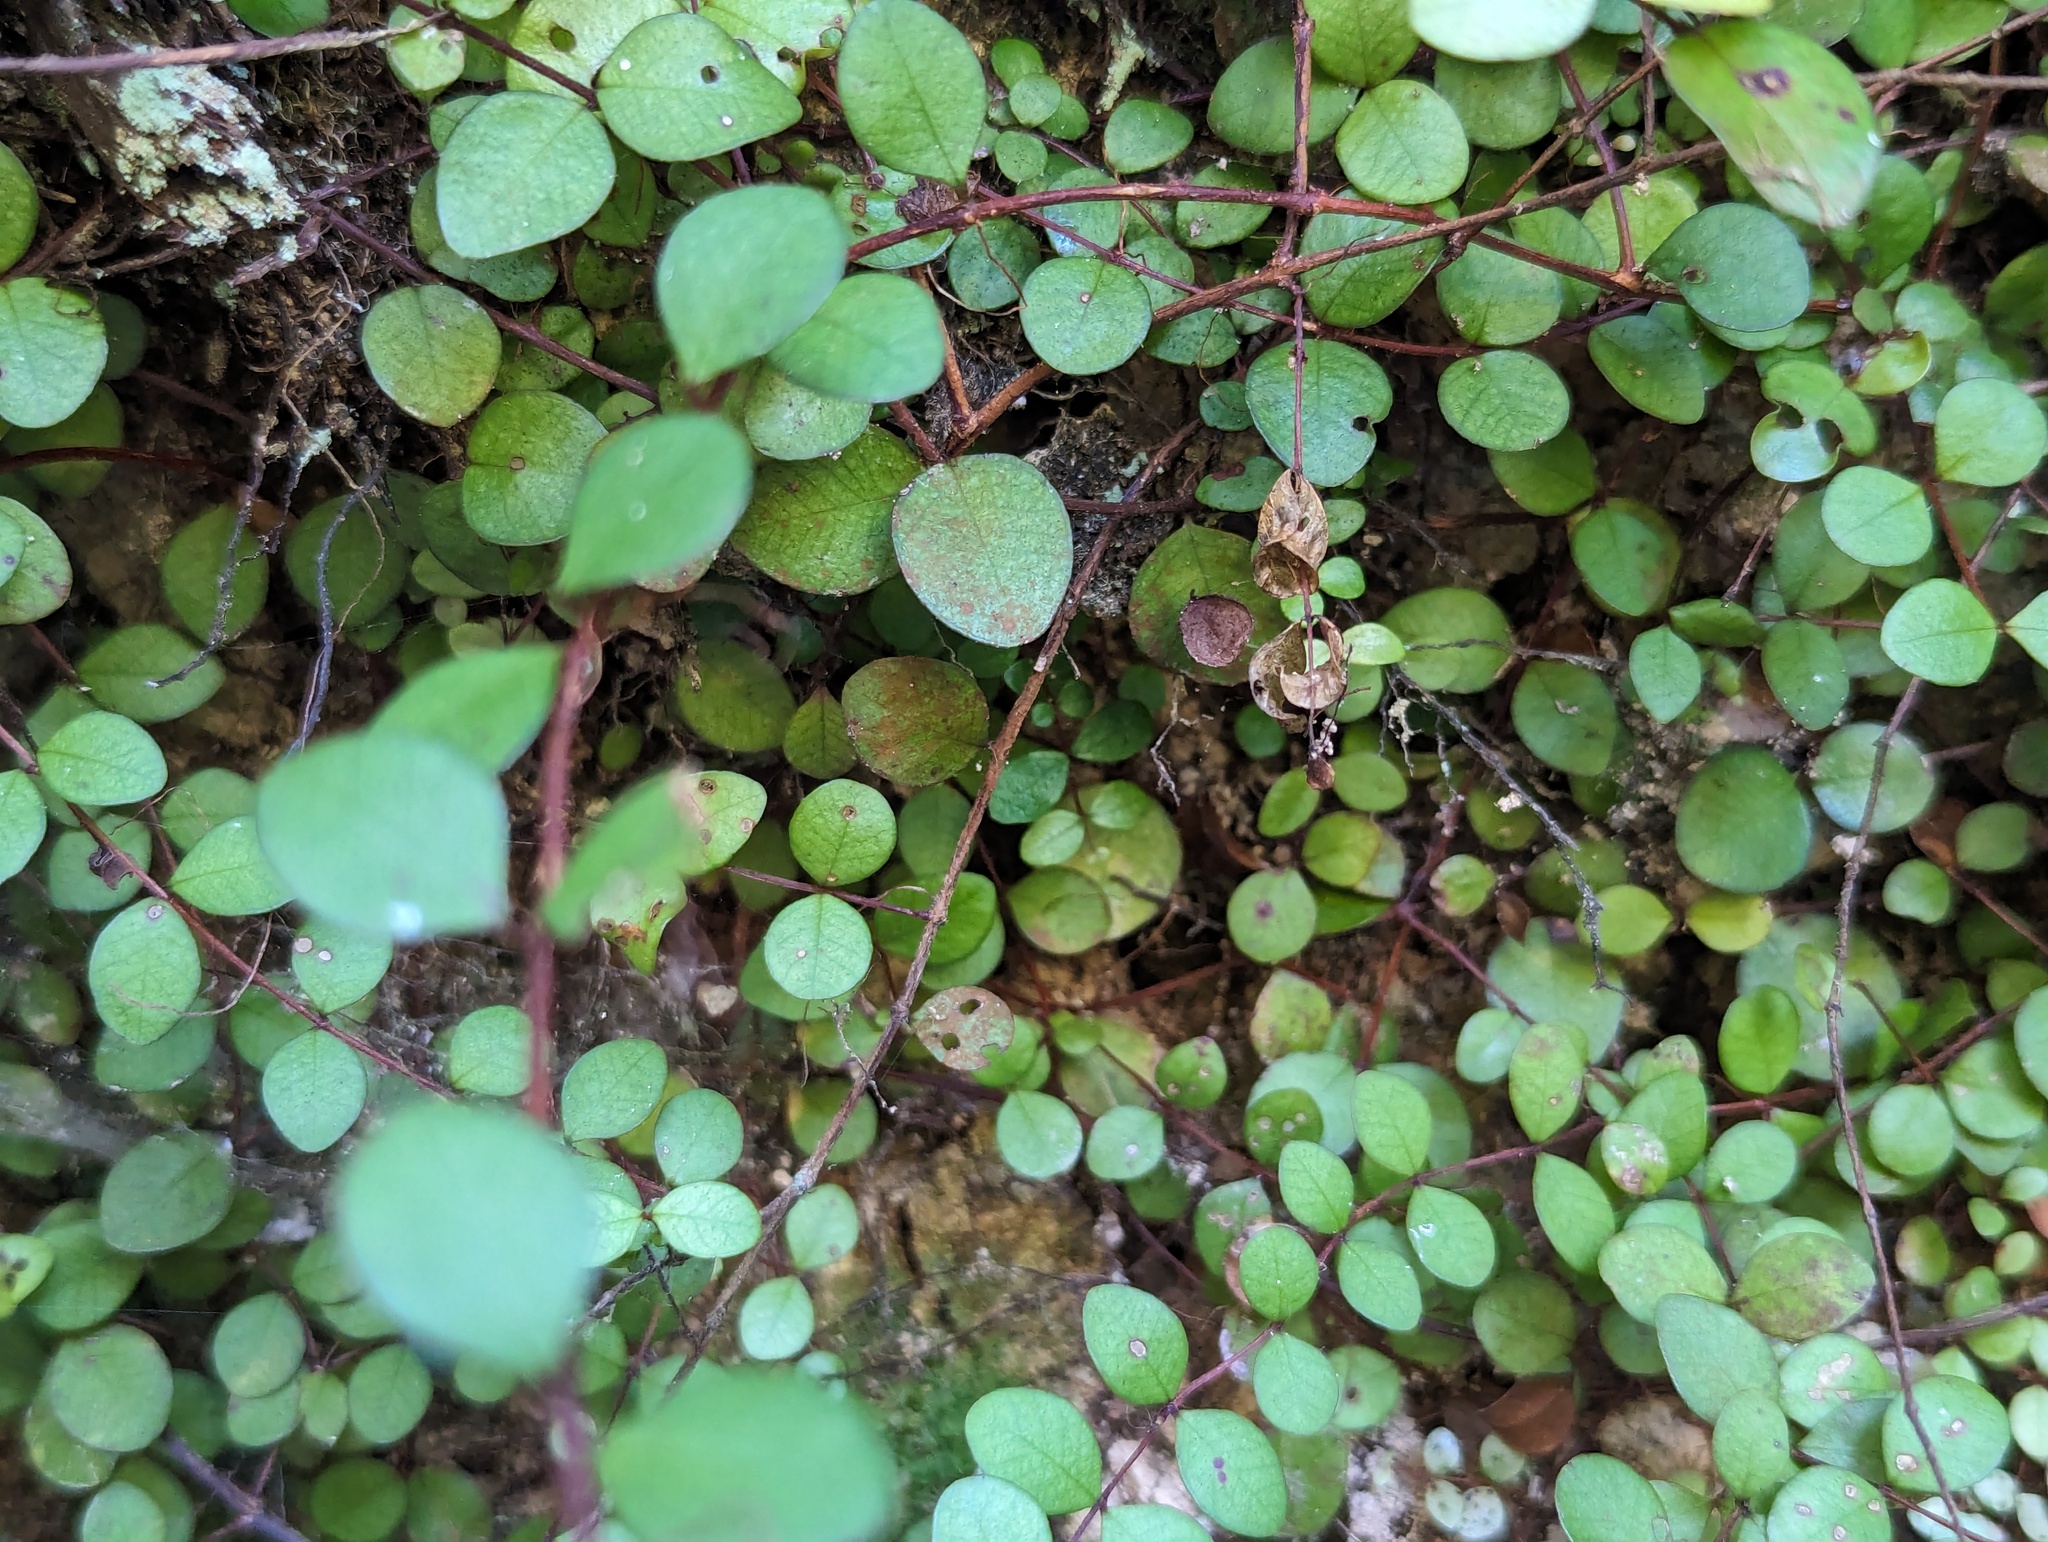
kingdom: Plantae
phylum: Tracheophyta
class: Magnoliopsida
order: Myrtales
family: Myrtaceae
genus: Metrosideros
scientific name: Metrosideros fulgens
